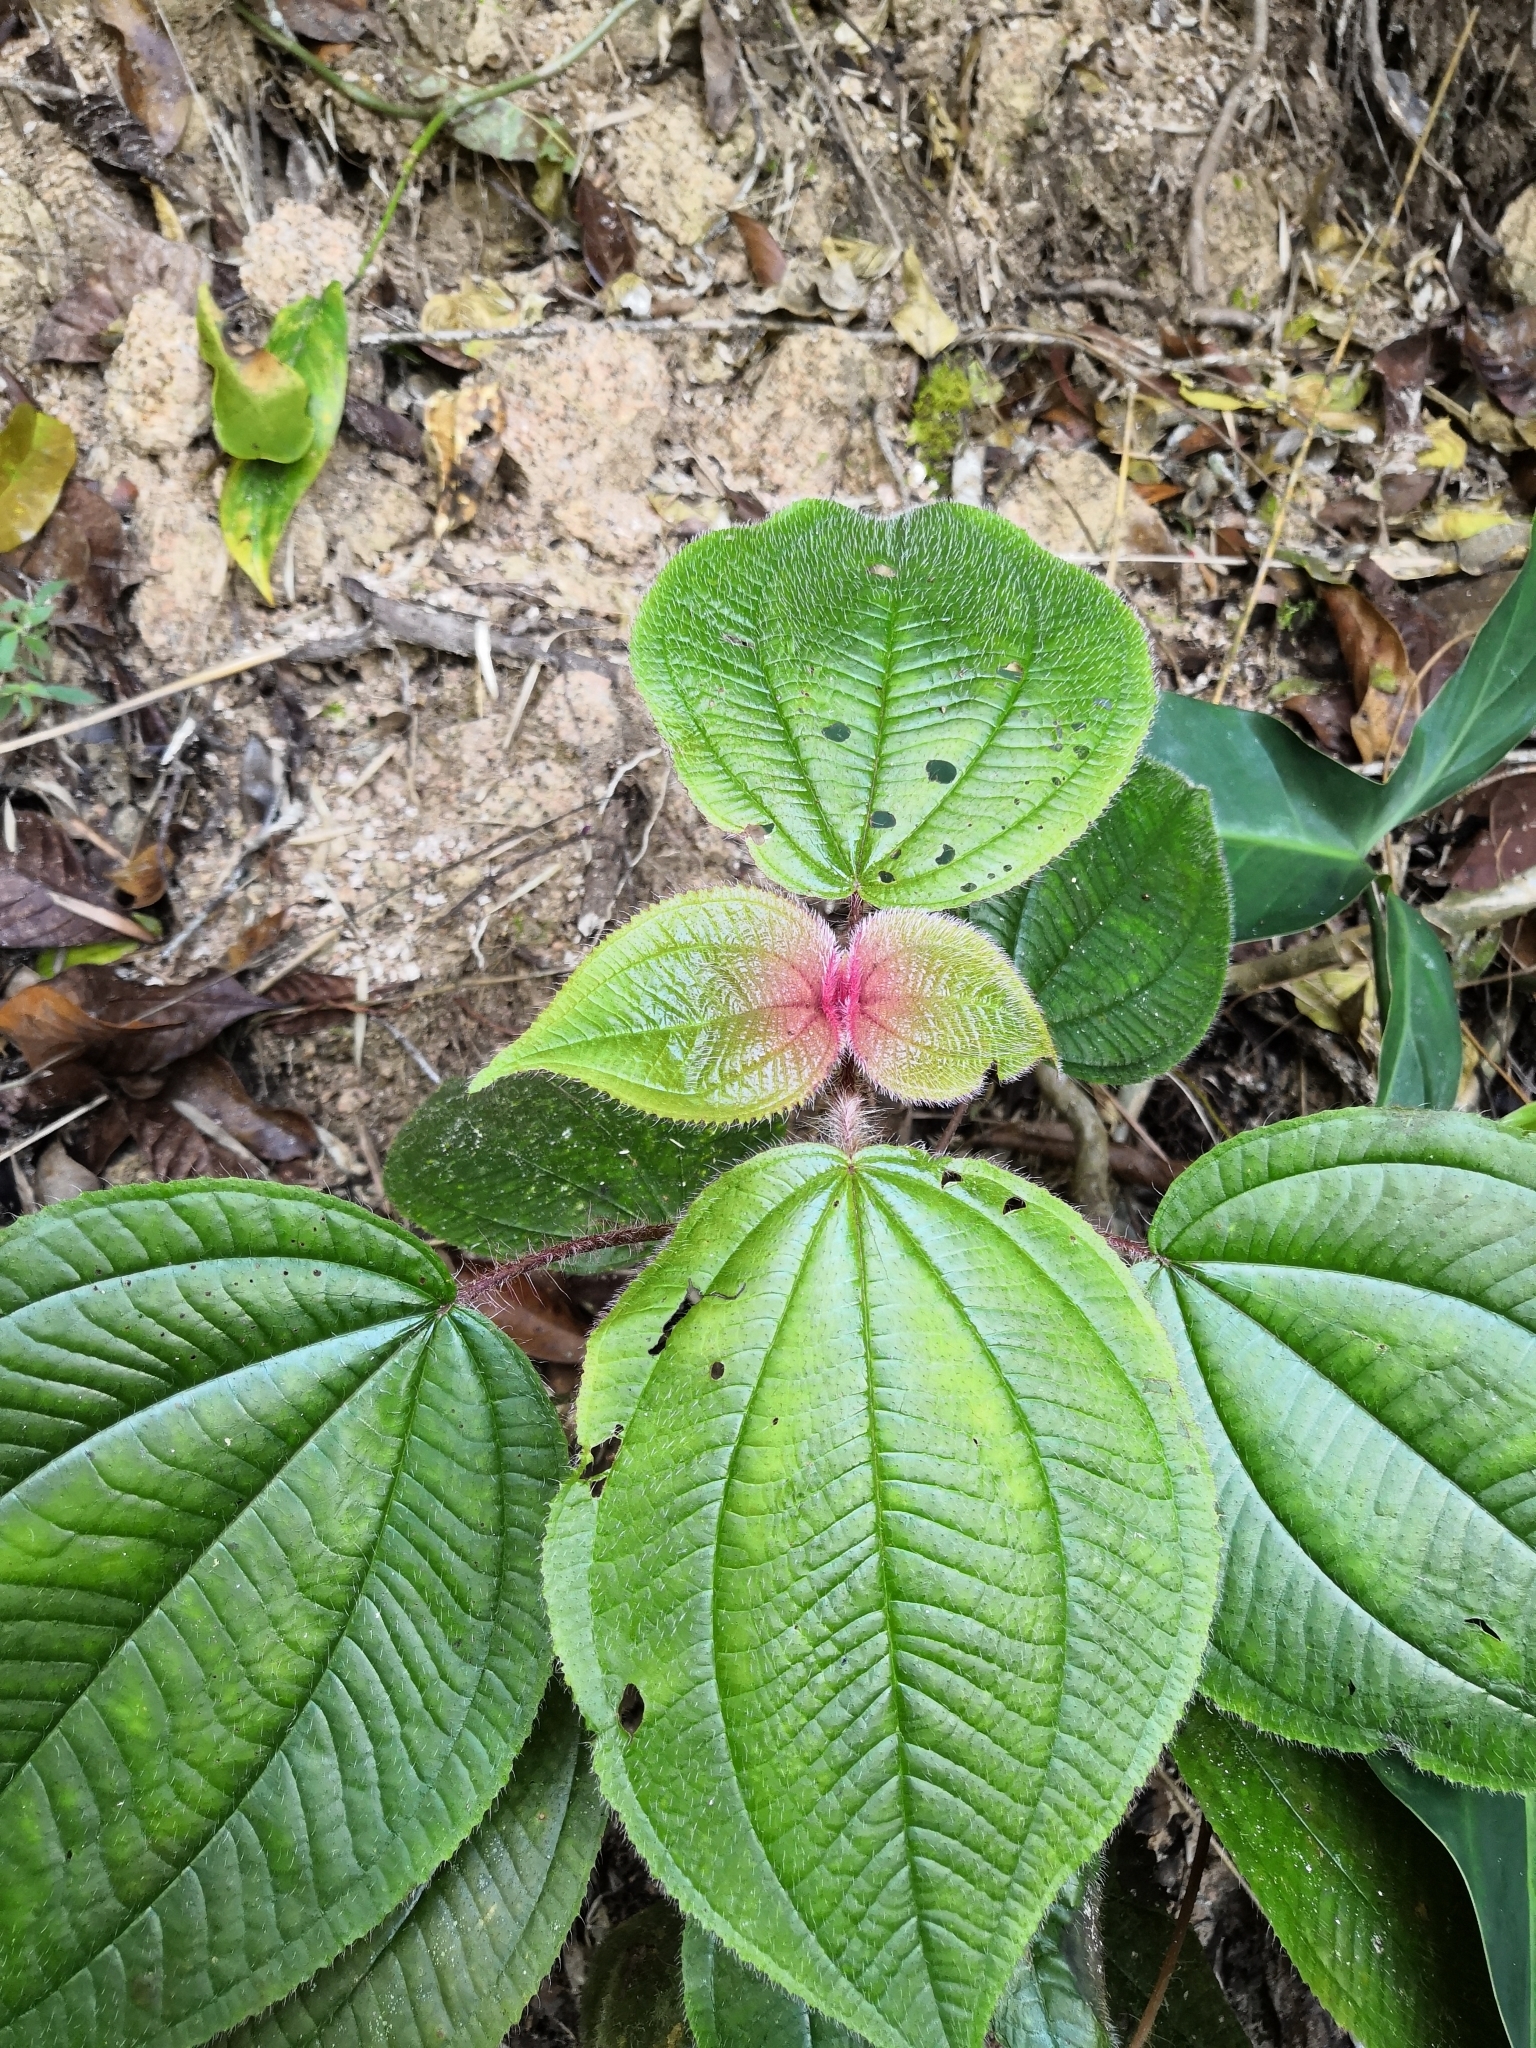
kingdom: Plantae
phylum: Tracheophyta
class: Magnoliopsida
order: Myrtales
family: Melastomataceae
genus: Miconia
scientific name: Miconia vallartensis
